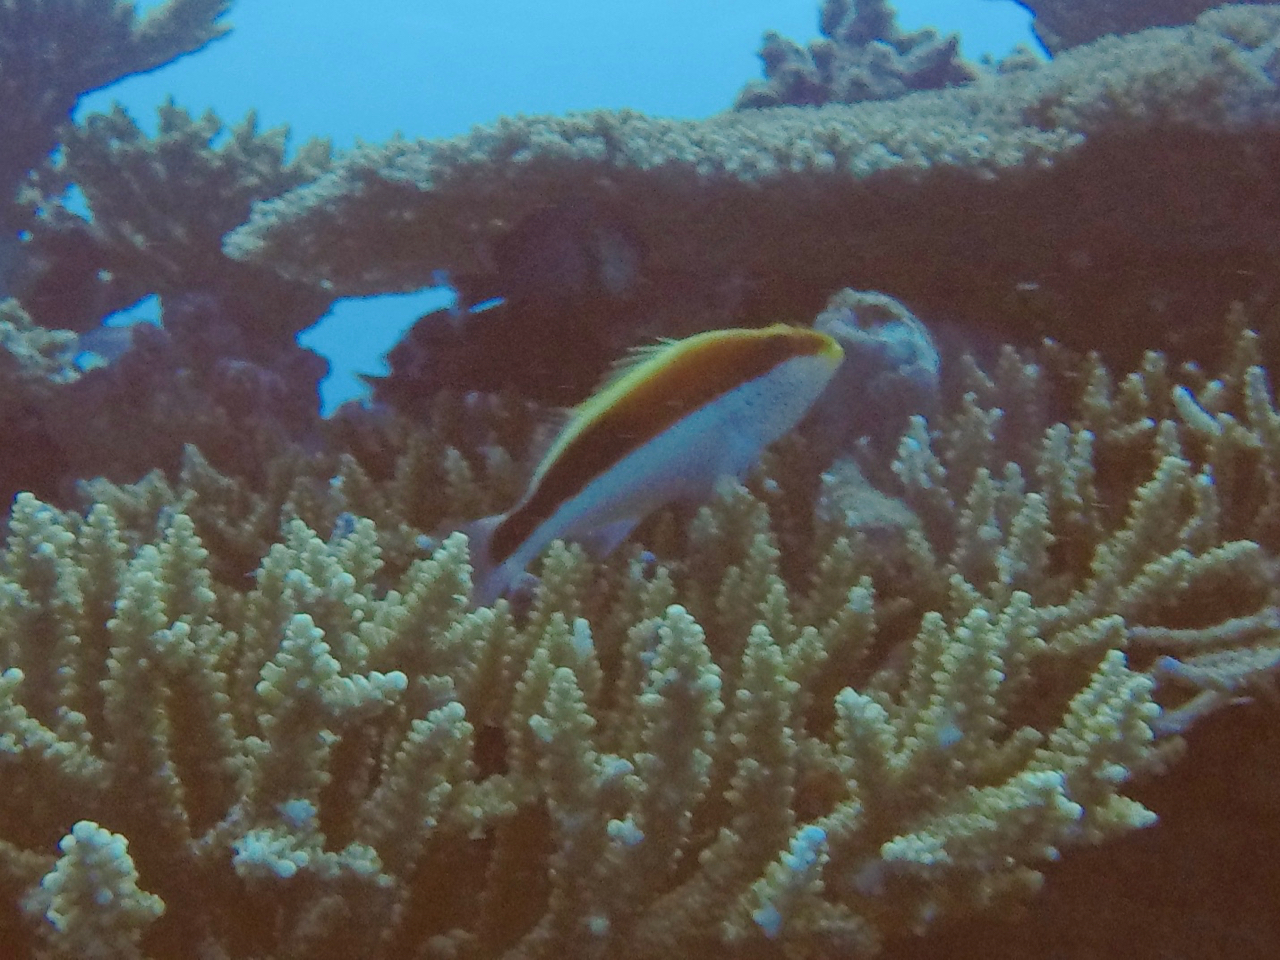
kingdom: Animalia
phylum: Chordata
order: Perciformes
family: Cirrhitidae
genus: Paracirrhites
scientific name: Paracirrhites forsteri
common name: Freckled hawkfish
